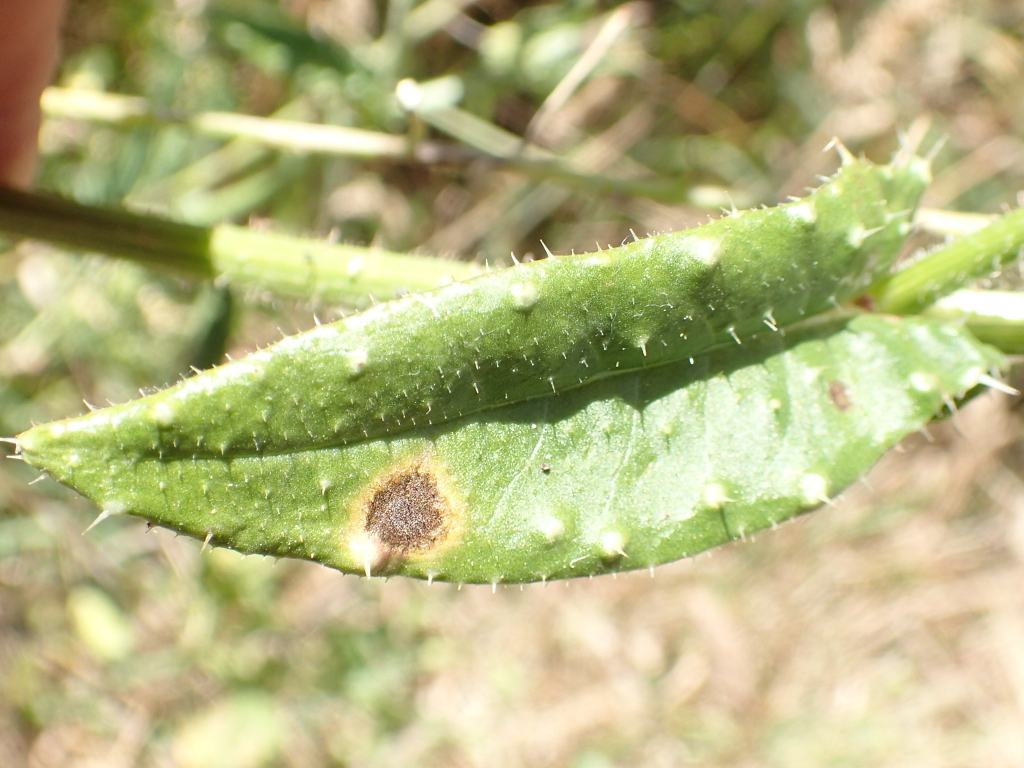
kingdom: Plantae
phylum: Tracheophyta
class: Magnoliopsida
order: Asterales
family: Asteraceae
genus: Helminthotheca
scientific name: Helminthotheca echioides
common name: Ox-tongue
